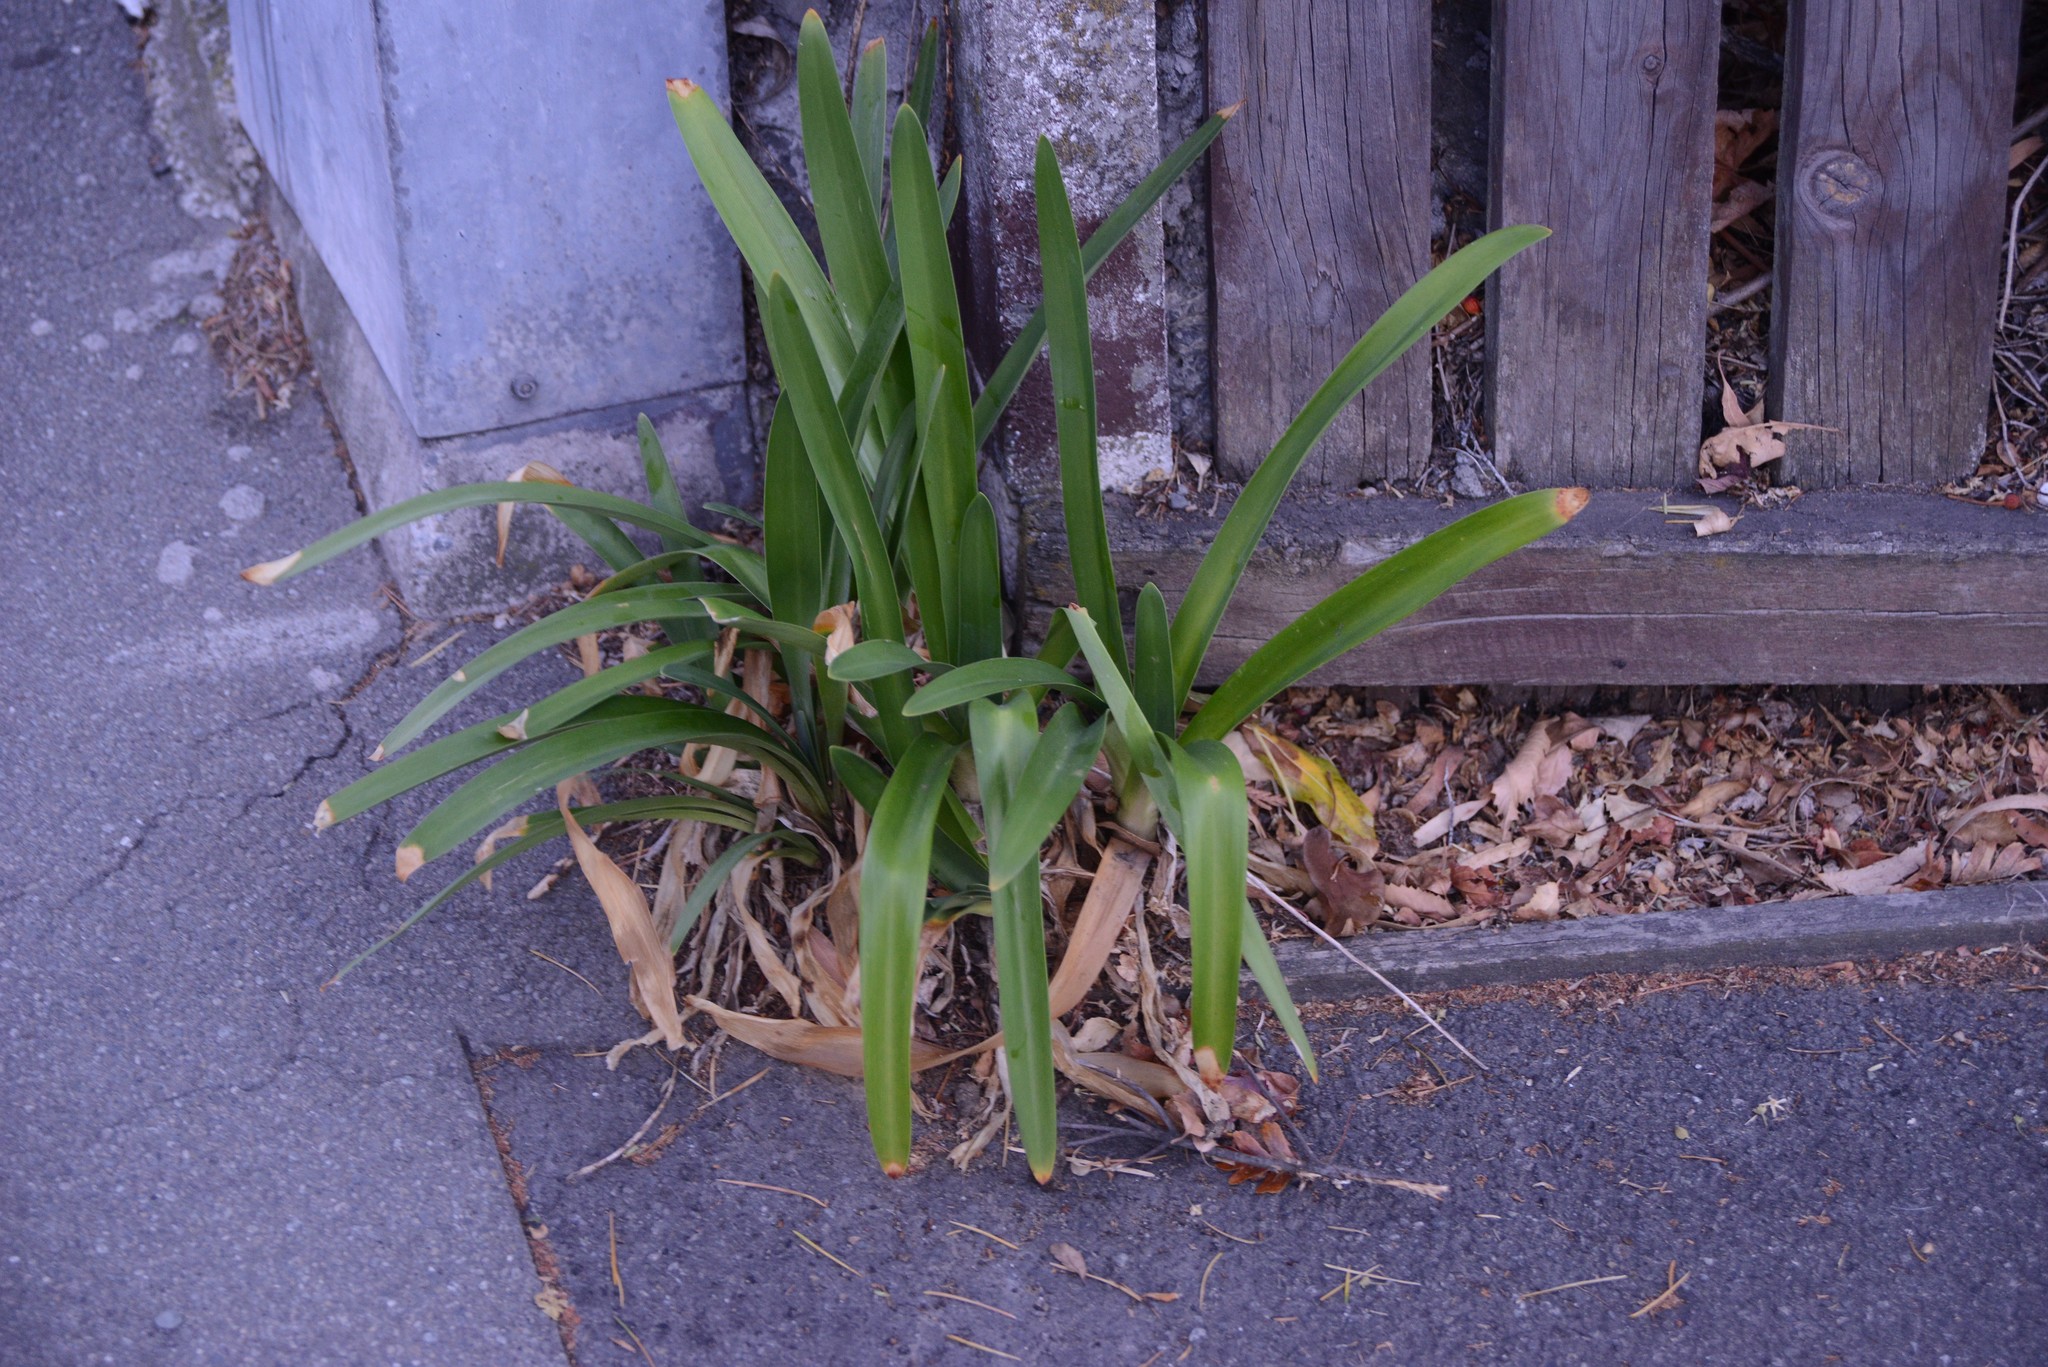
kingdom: Plantae
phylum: Tracheophyta
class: Liliopsida
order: Asparagales
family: Amaryllidaceae
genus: Agapanthus
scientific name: Agapanthus praecox
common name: African-lily
